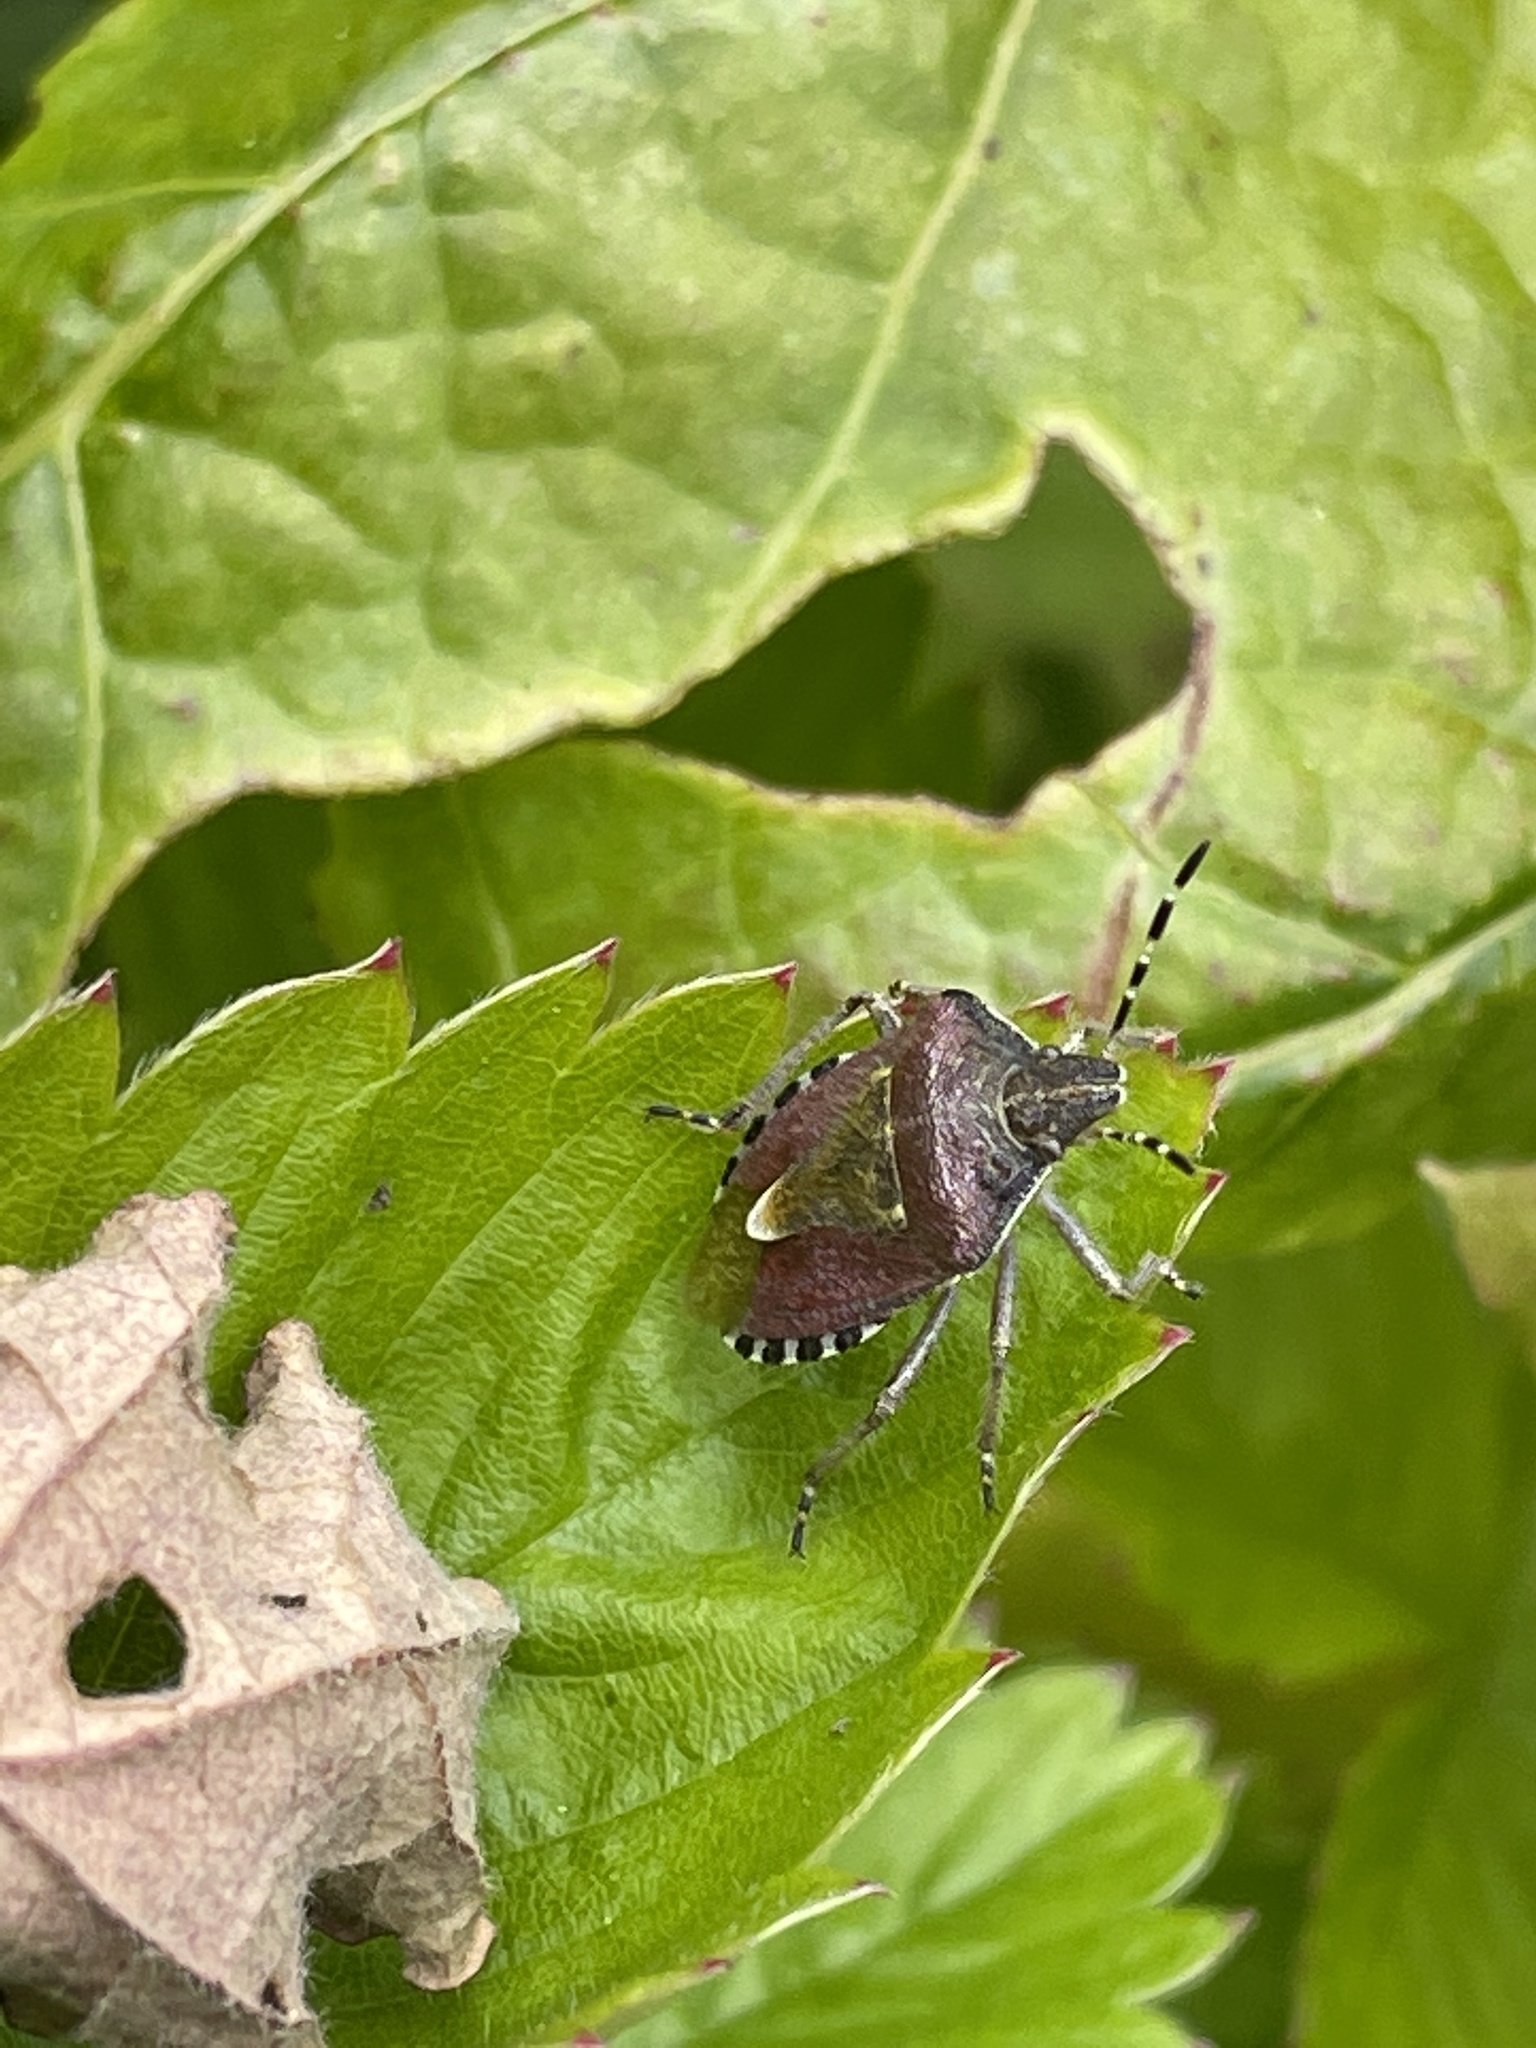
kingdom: Animalia
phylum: Arthropoda
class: Insecta
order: Hemiptera
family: Pentatomidae
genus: Dolycoris
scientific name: Dolycoris baccarum
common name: Sloe bug
